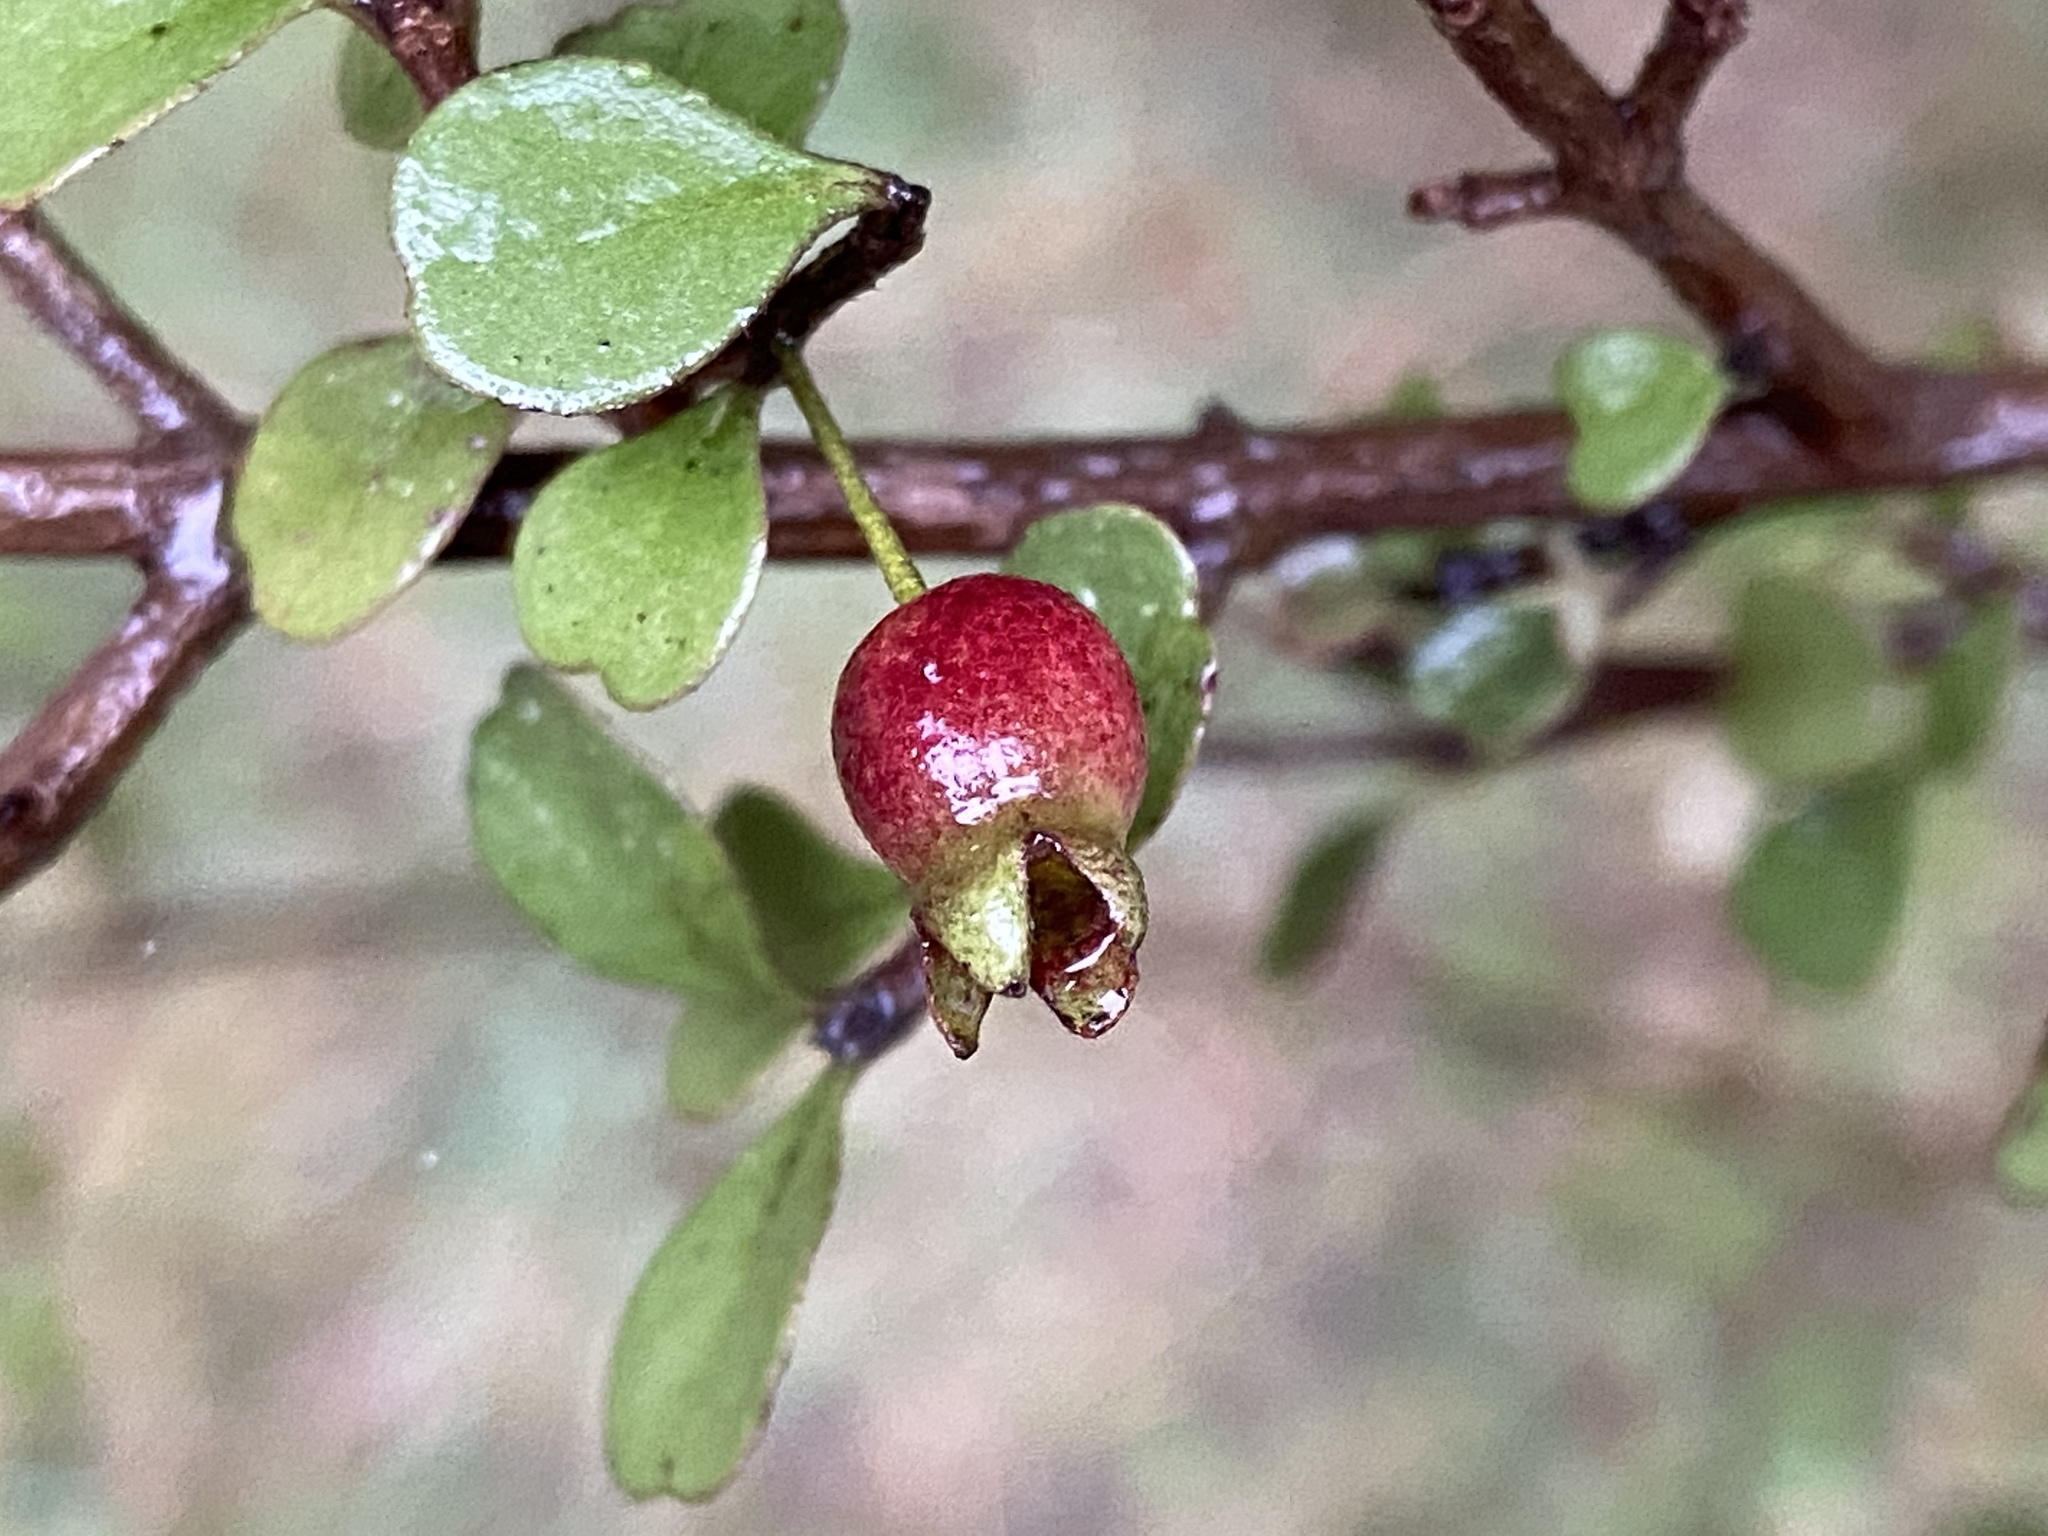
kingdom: Plantae
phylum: Tracheophyta
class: Magnoliopsida
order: Myrtales
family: Myrtaceae
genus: Lophomyrtus
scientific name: Lophomyrtus obcordata
